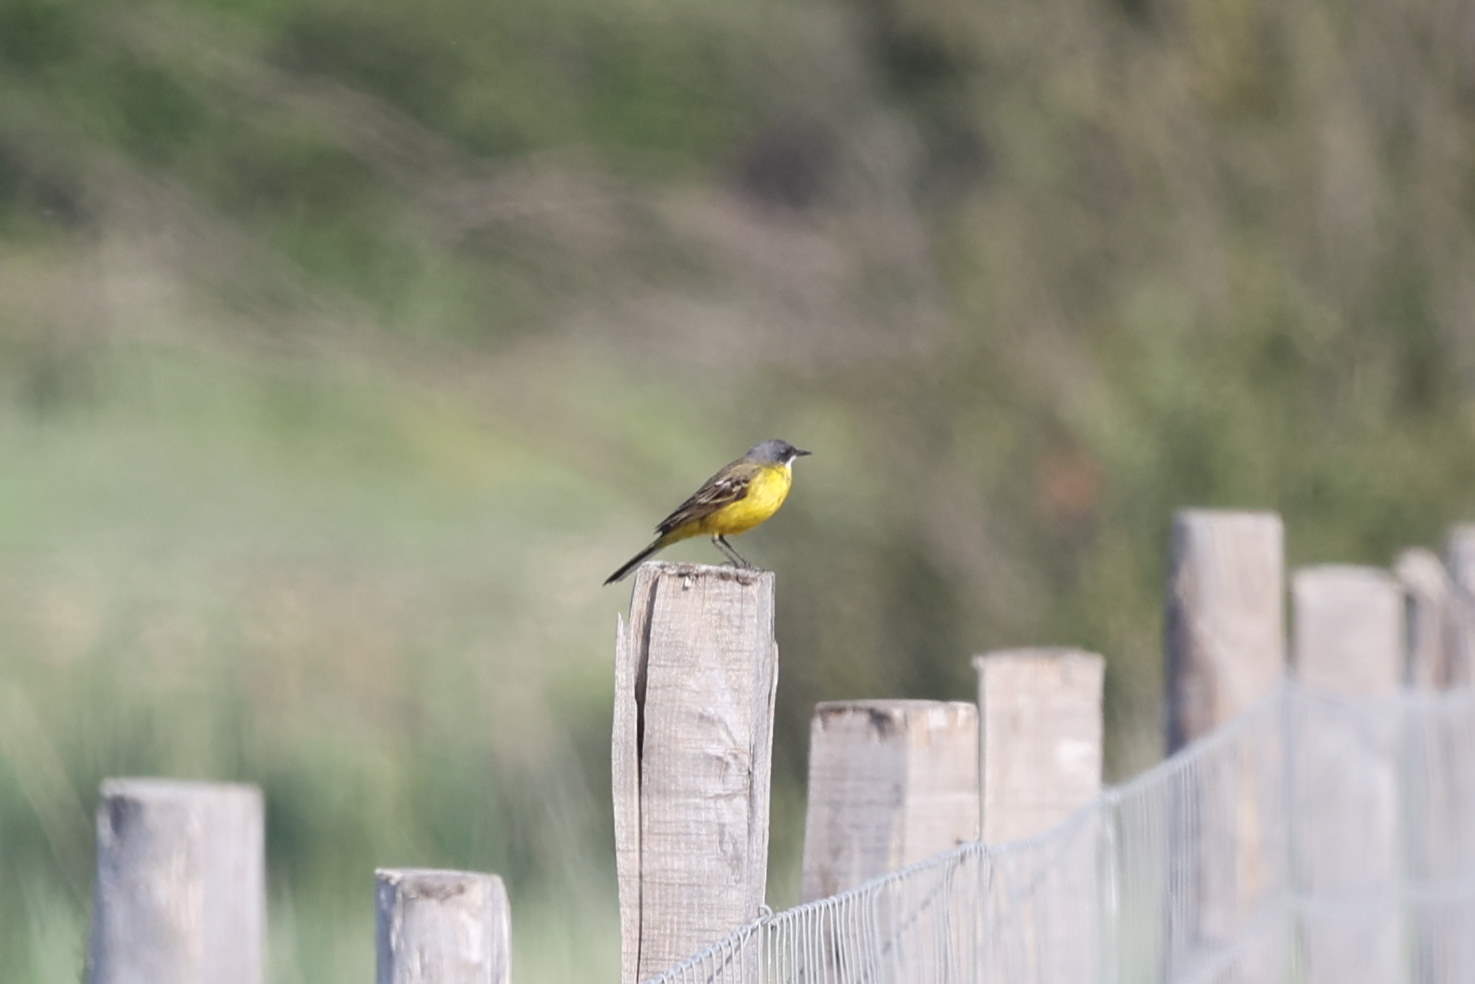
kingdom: Animalia
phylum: Chordata
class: Aves
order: Passeriformes
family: Motacillidae
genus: Motacilla
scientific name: Motacilla flava
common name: Western yellow wagtail
